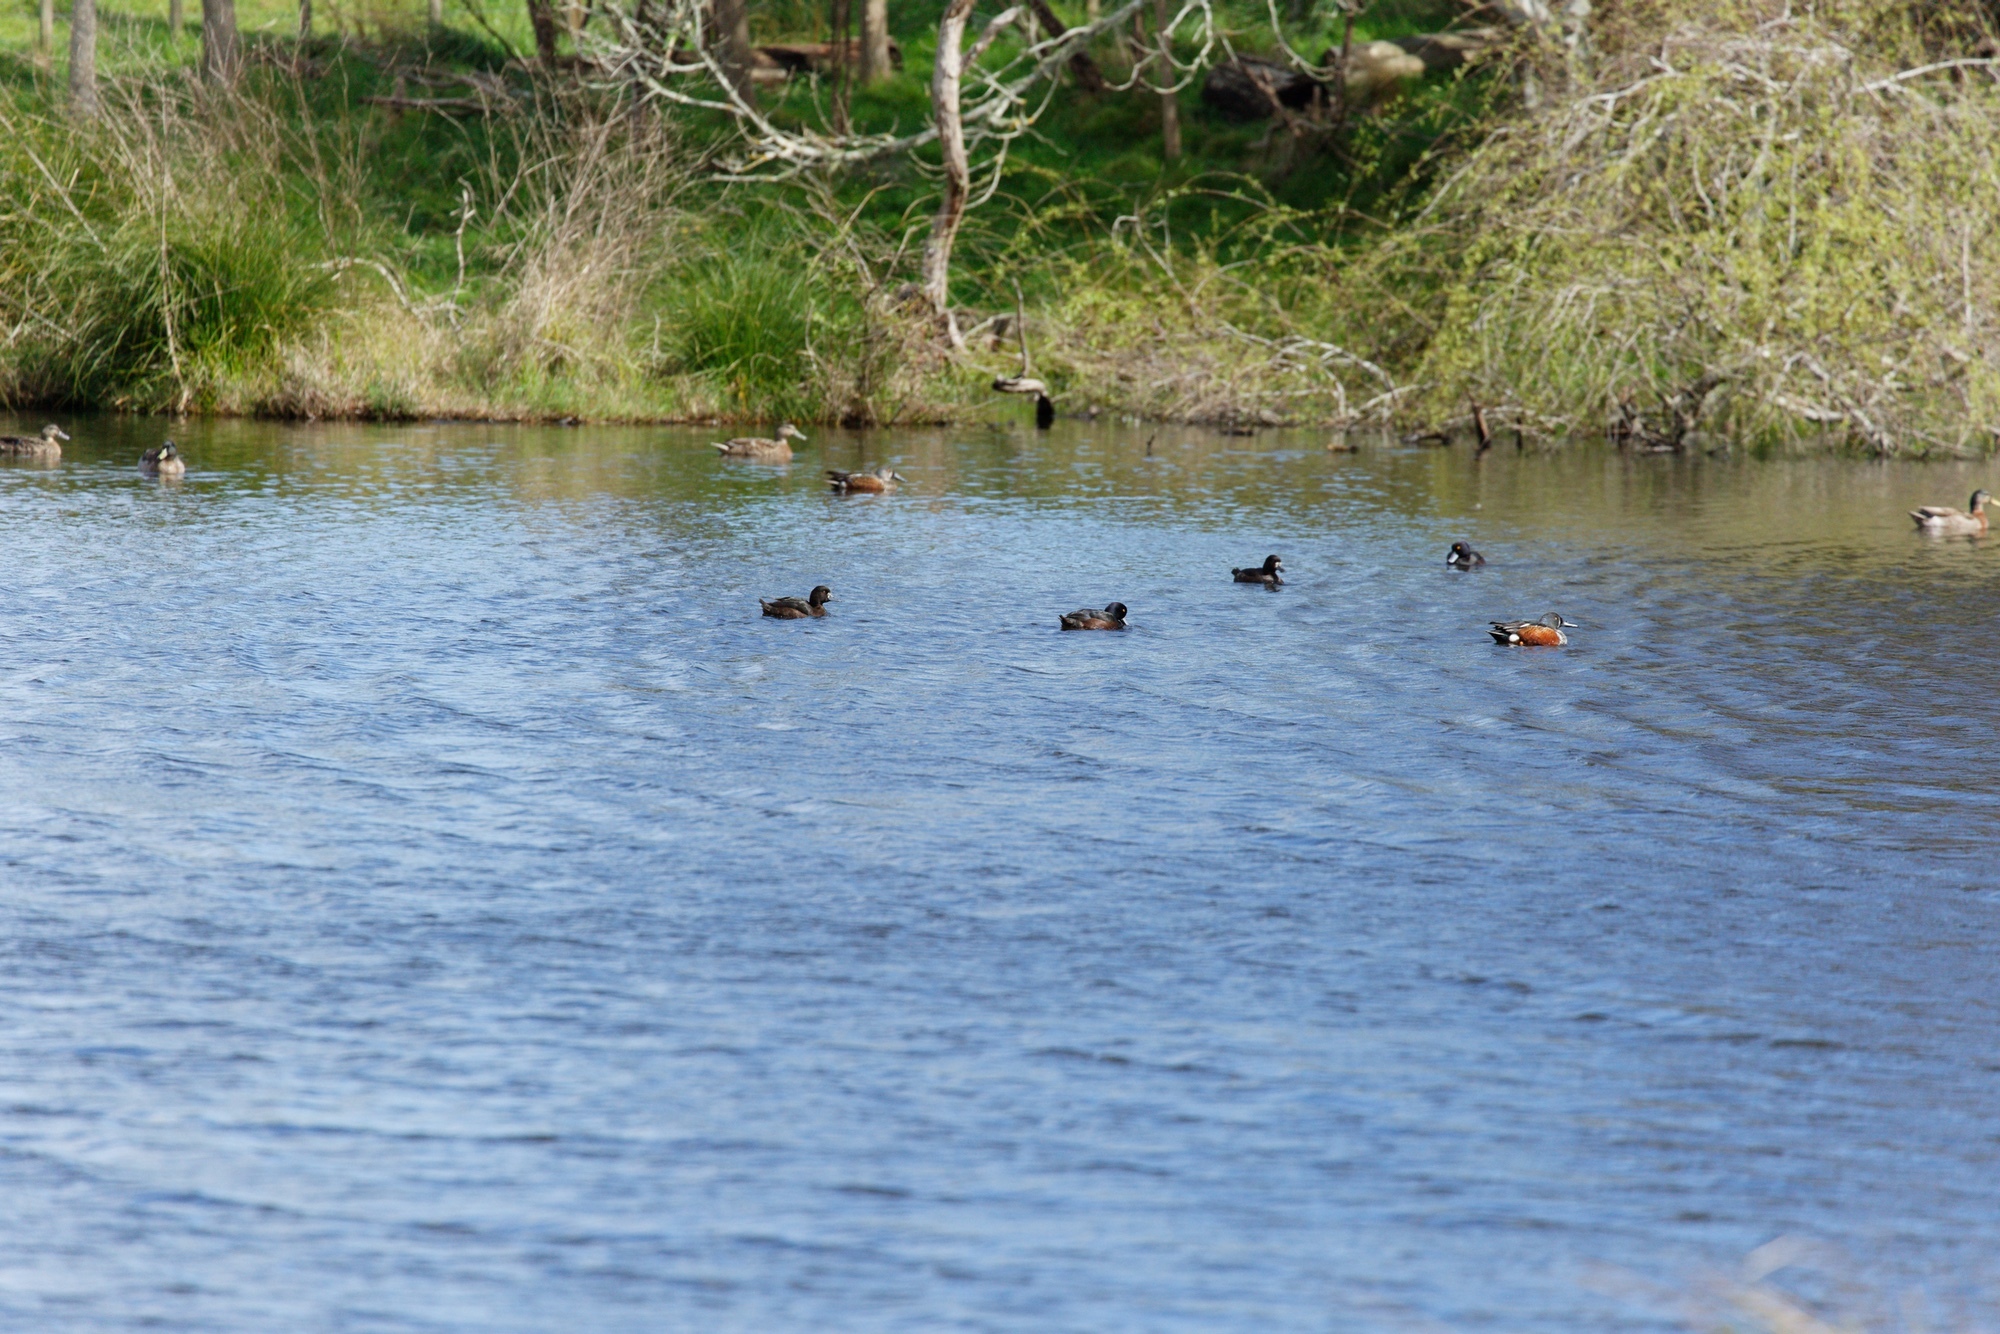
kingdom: Animalia
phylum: Chordata
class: Aves
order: Anseriformes
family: Anatidae
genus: Aythya
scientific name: Aythya novaeseelandiae
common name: New zealand scaup
